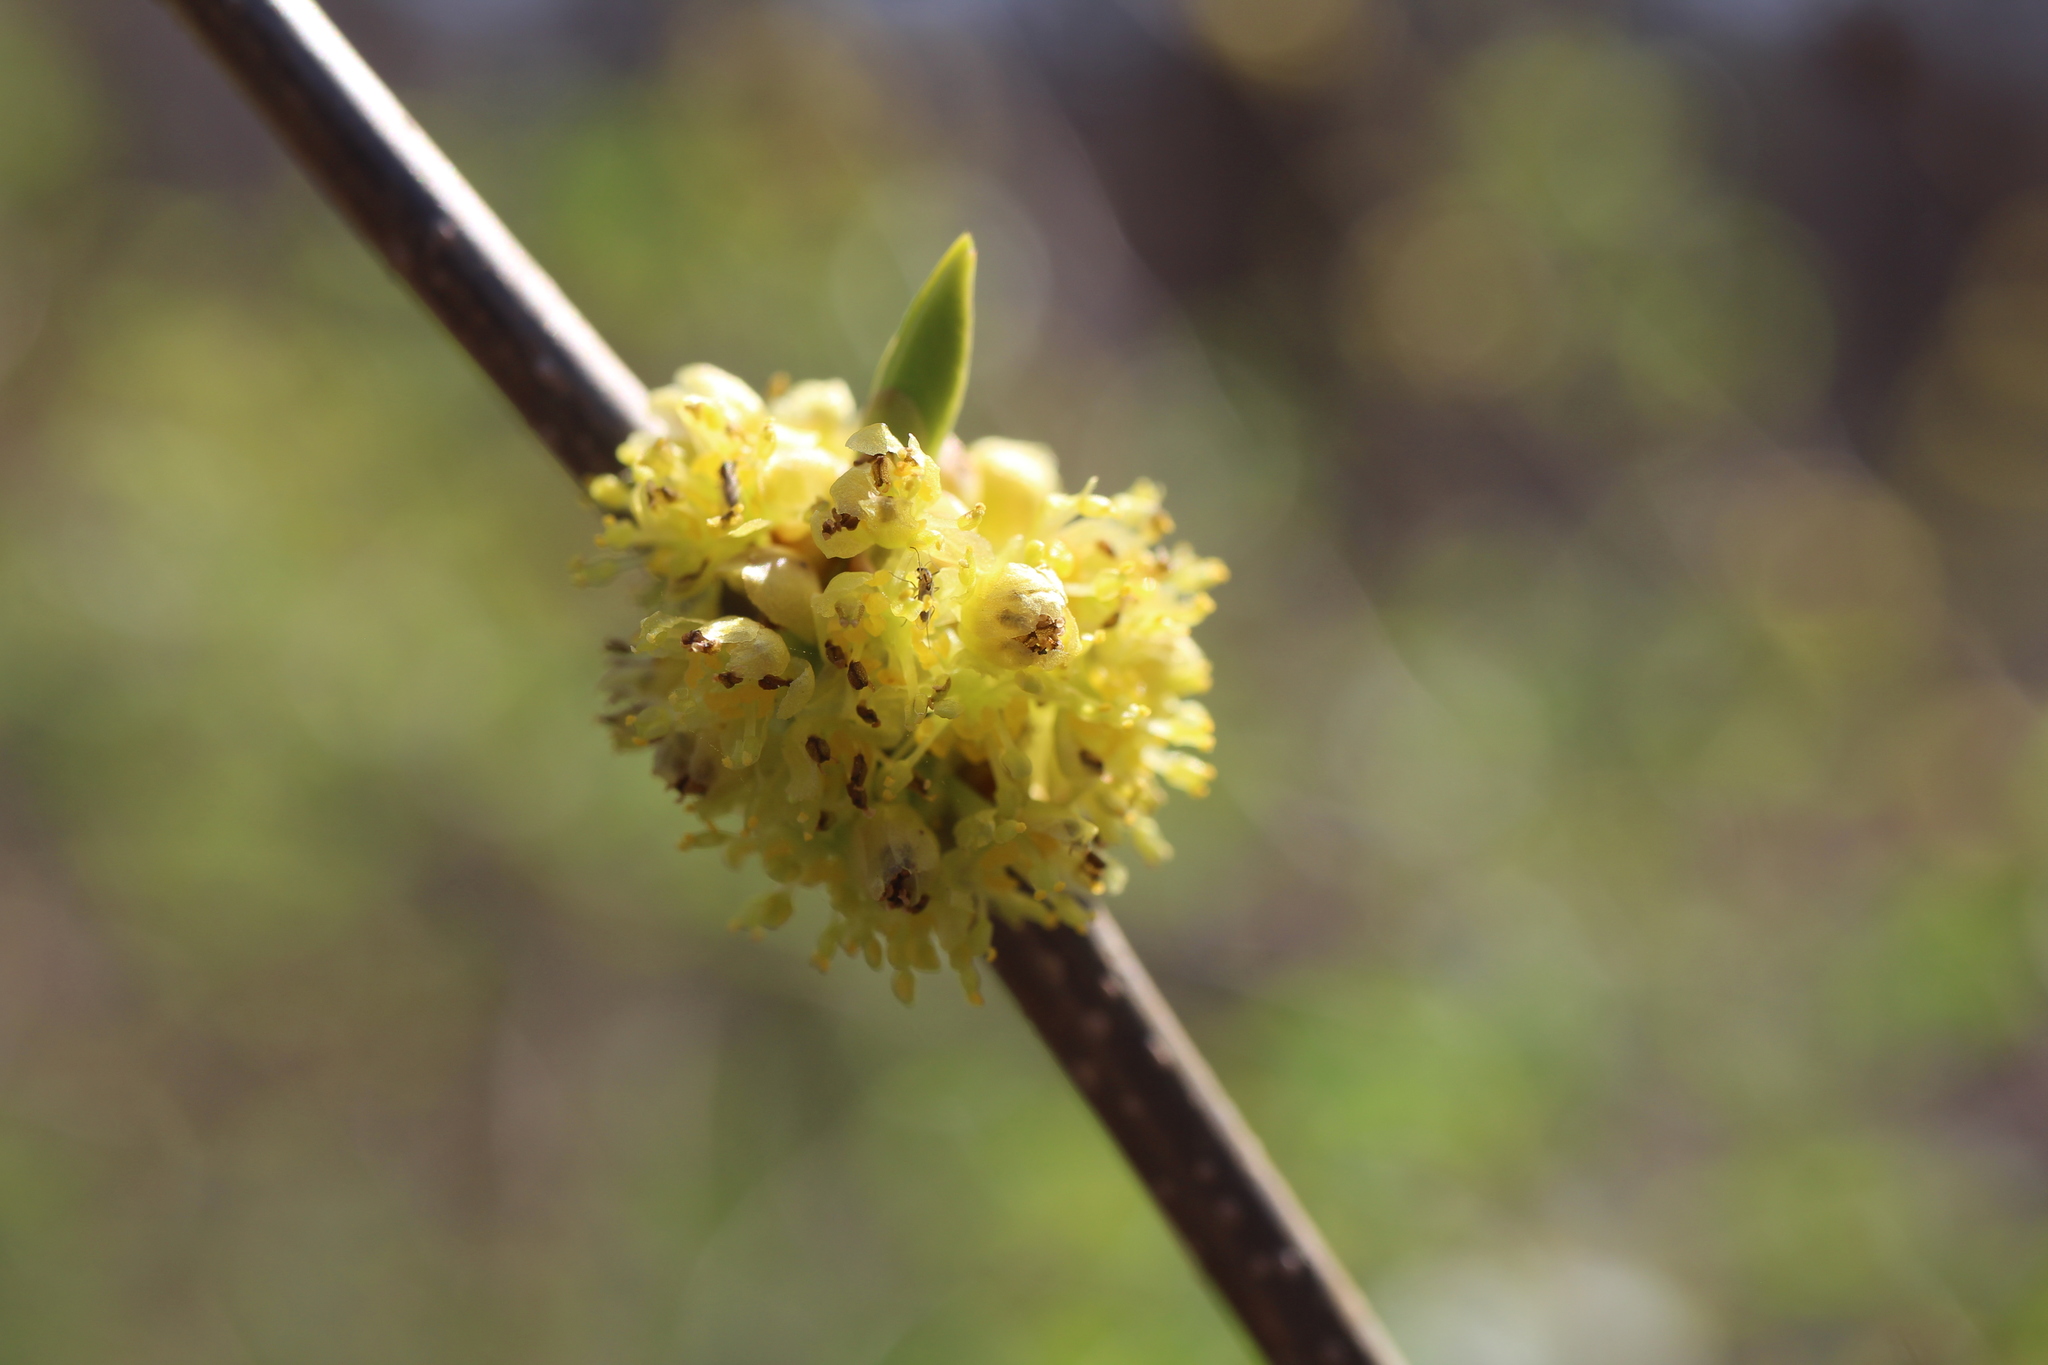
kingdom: Plantae
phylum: Tracheophyta
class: Magnoliopsida
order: Laurales
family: Lauraceae
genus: Lindera
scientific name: Lindera benzoin
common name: Spicebush
